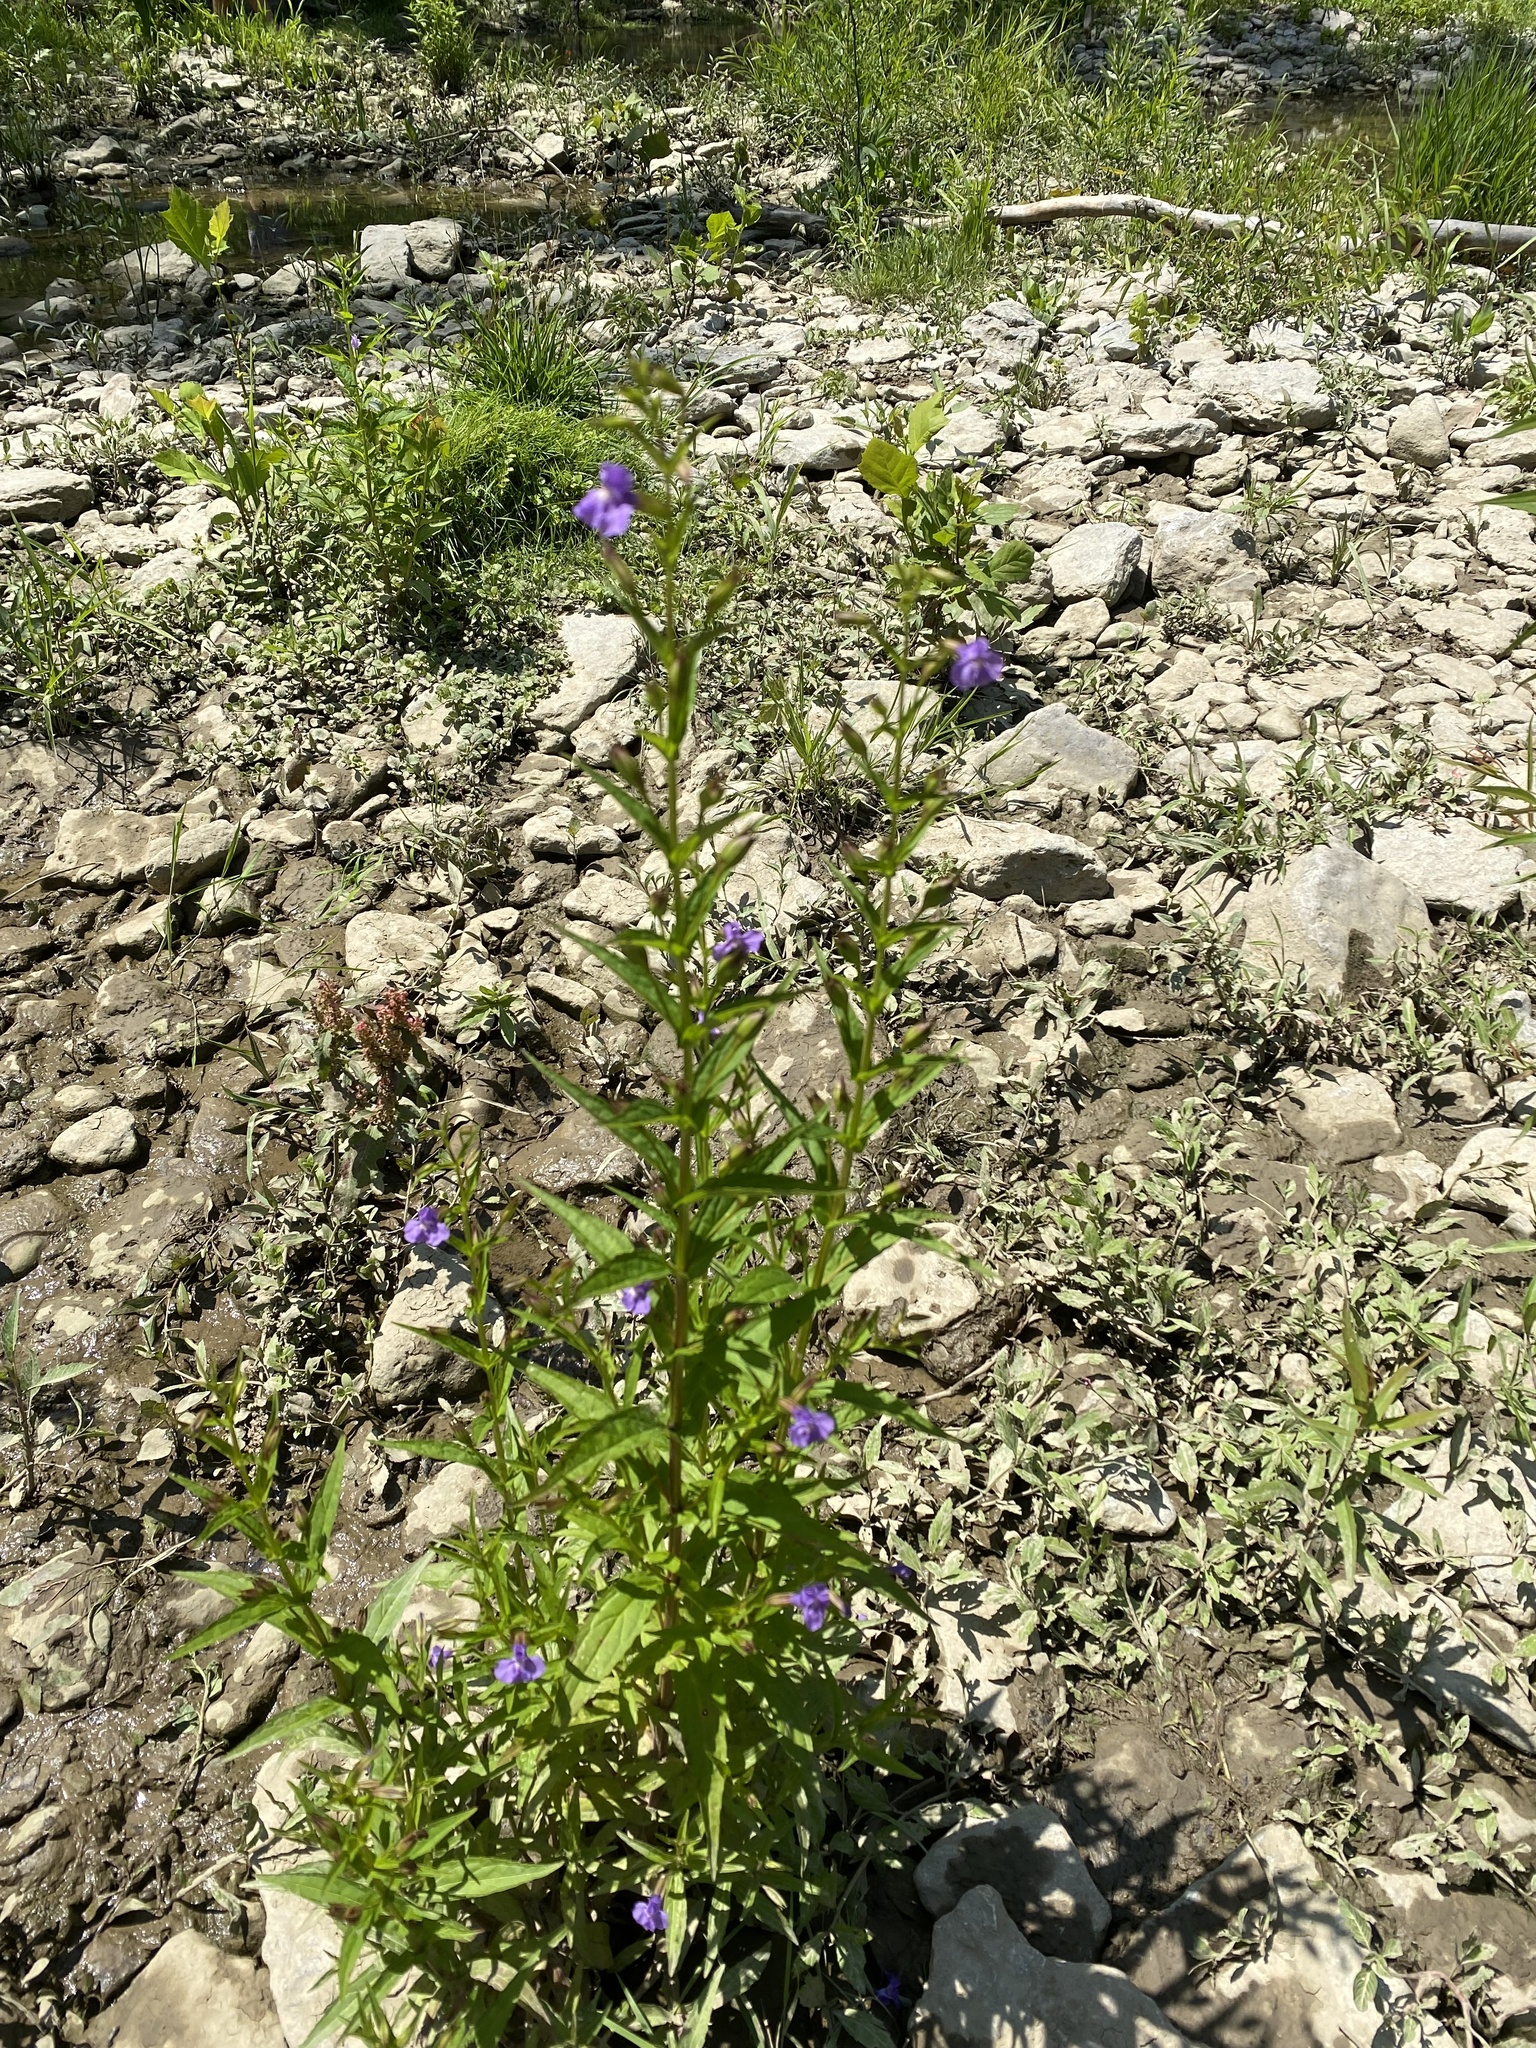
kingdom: Plantae
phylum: Tracheophyta
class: Magnoliopsida
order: Lamiales
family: Phrymaceae
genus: Mimulus
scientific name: Mimulus ringens
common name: Allegheny monkeyflower
